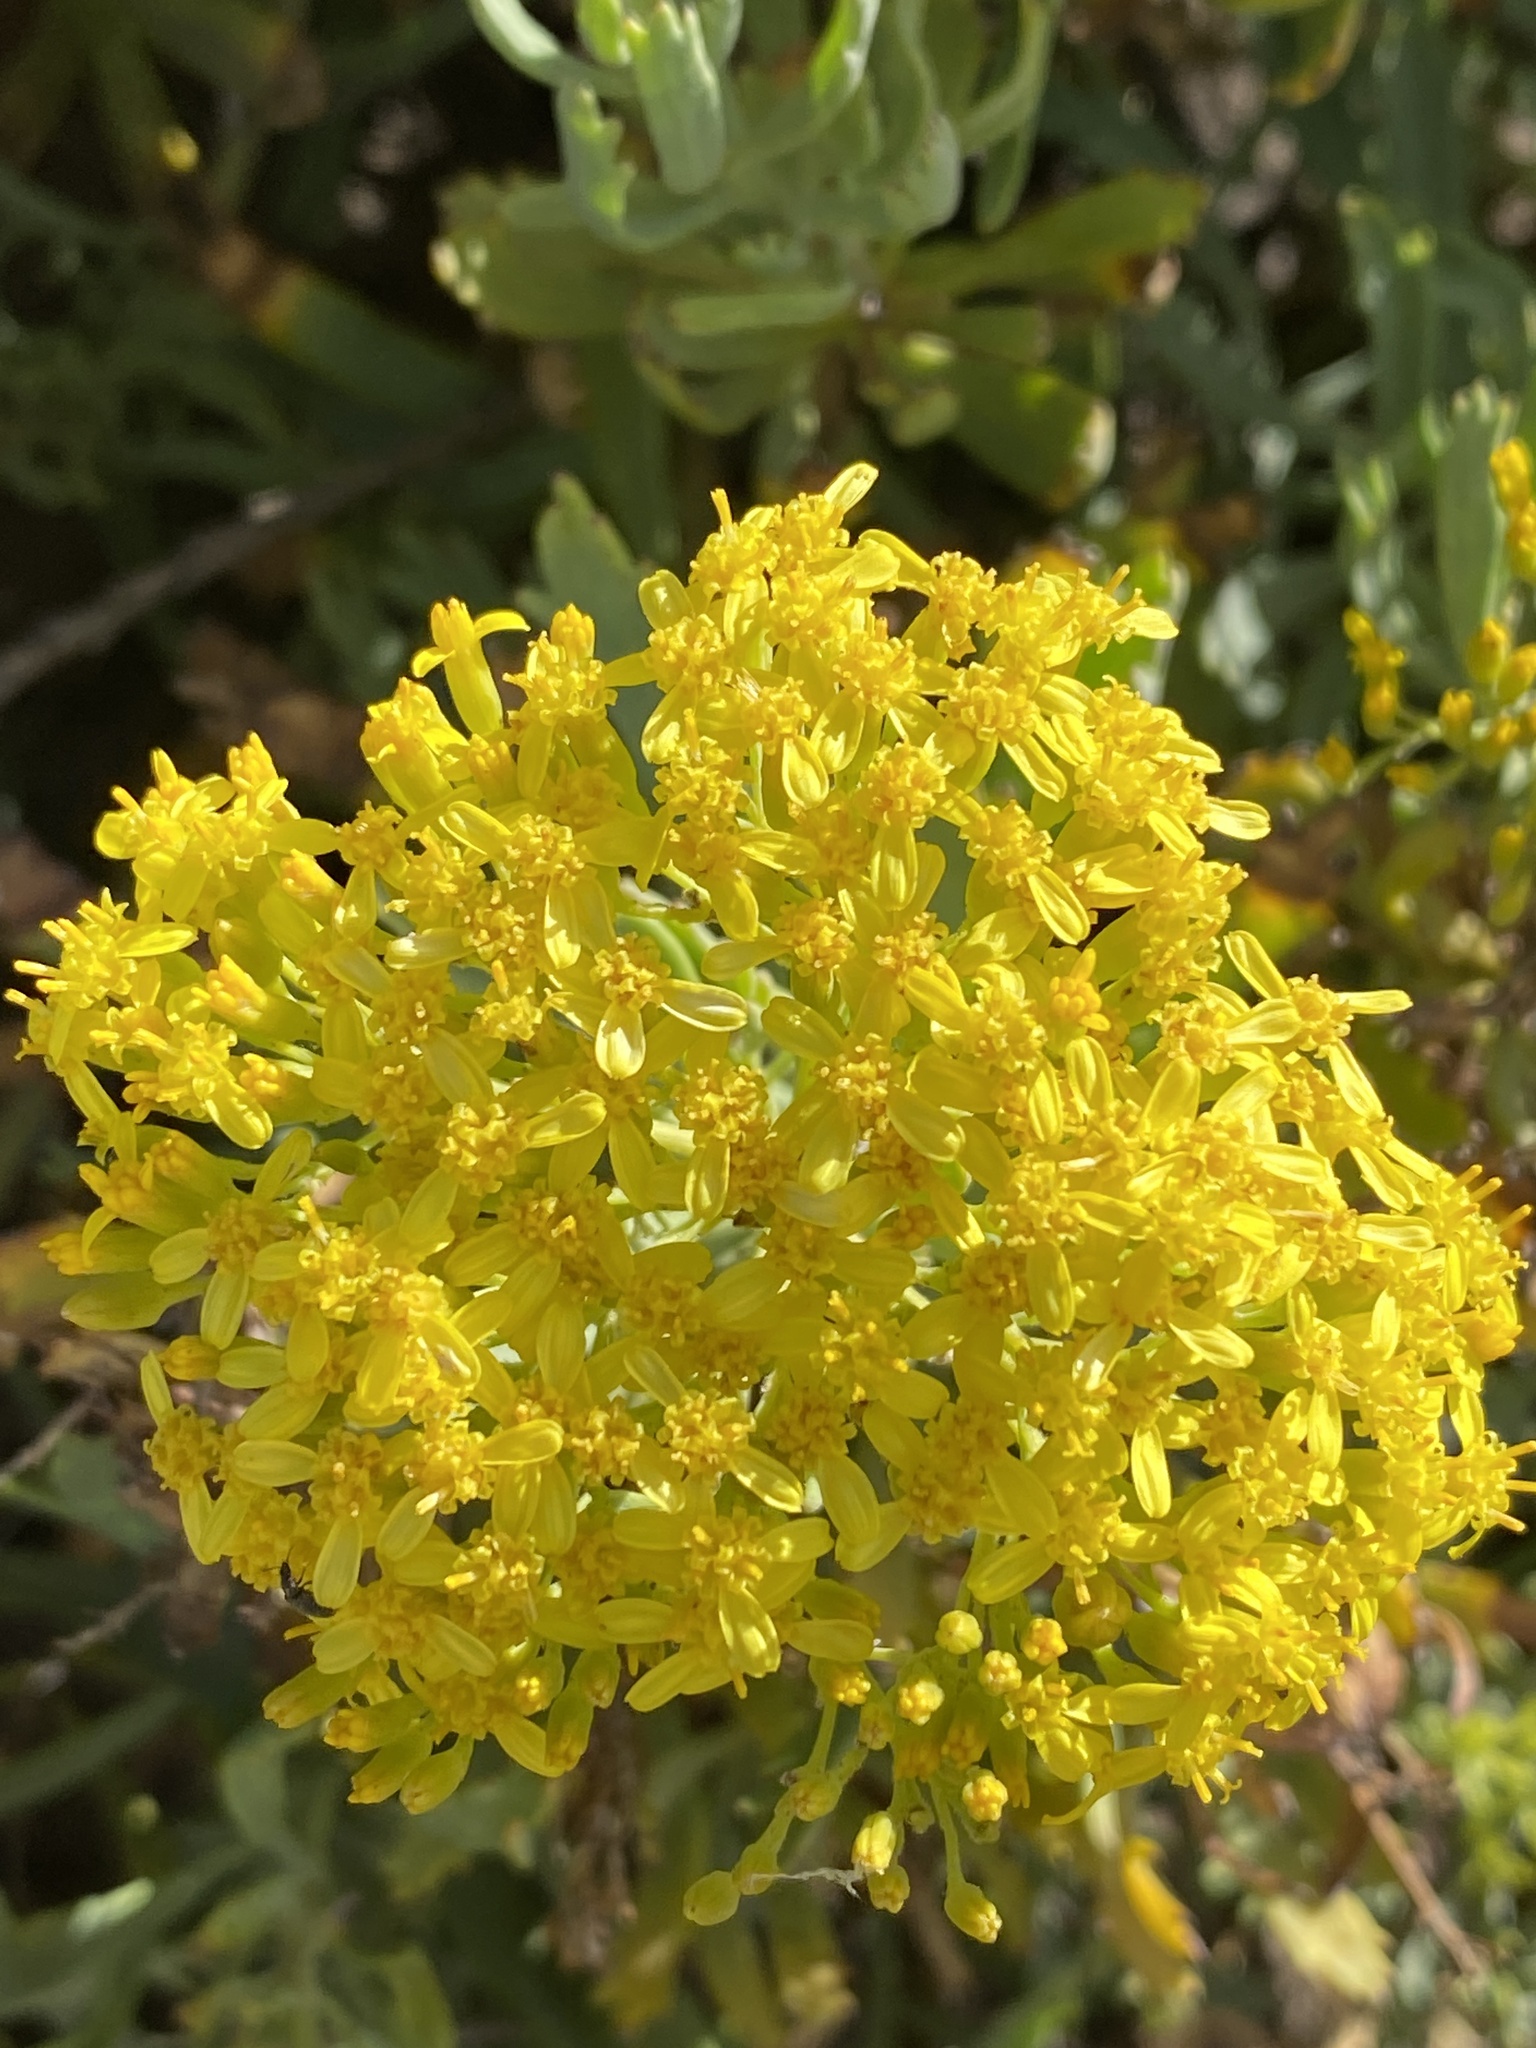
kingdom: Plantae
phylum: Tracheophyta
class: Magnoliopsida
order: Asterales
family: Asteraceae
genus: Bethencourtia
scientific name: Bethencourtia palmensis
